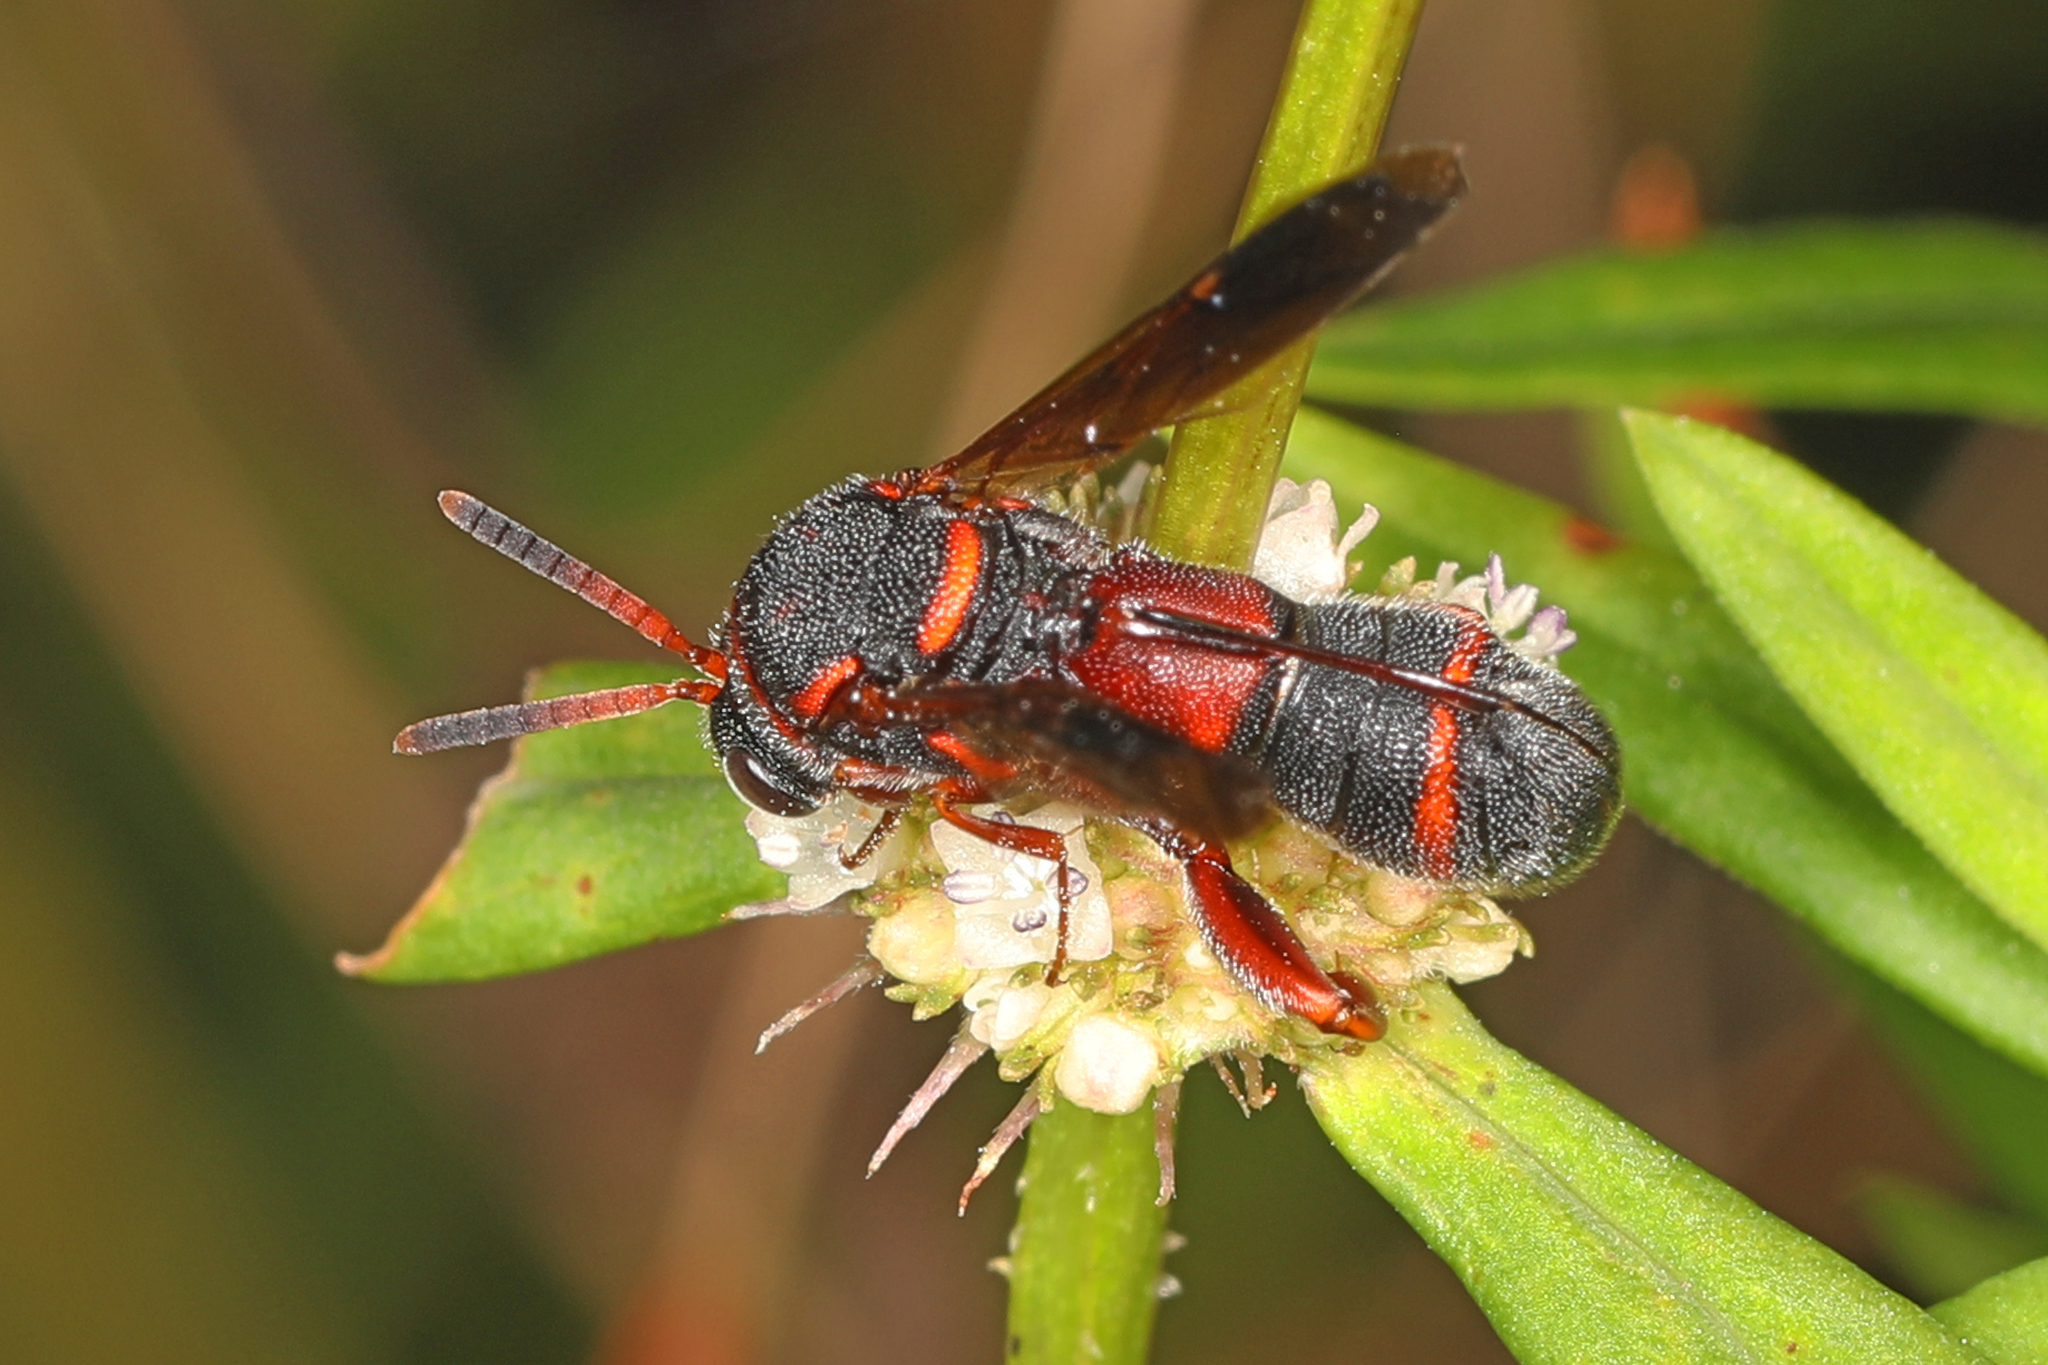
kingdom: Animalia
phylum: Arthropoda
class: Insecta
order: Hymenoptera
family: Leucospidae
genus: Leucospis
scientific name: Leucospis affinis
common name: Wasp
